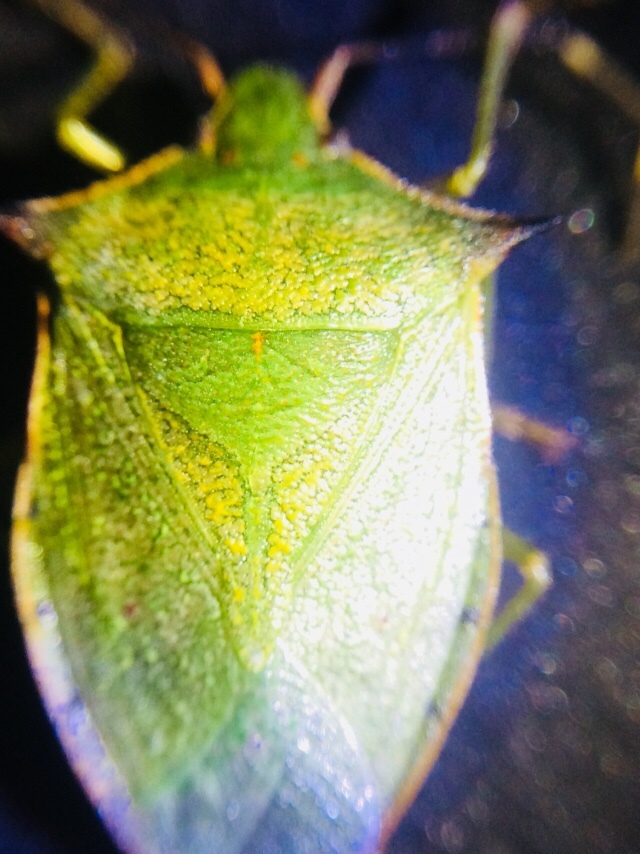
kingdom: Animalia
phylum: Arthropoda
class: Insecta
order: Hemiptera
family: Pentatomidae
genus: Loxa
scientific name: Loxa viridis
